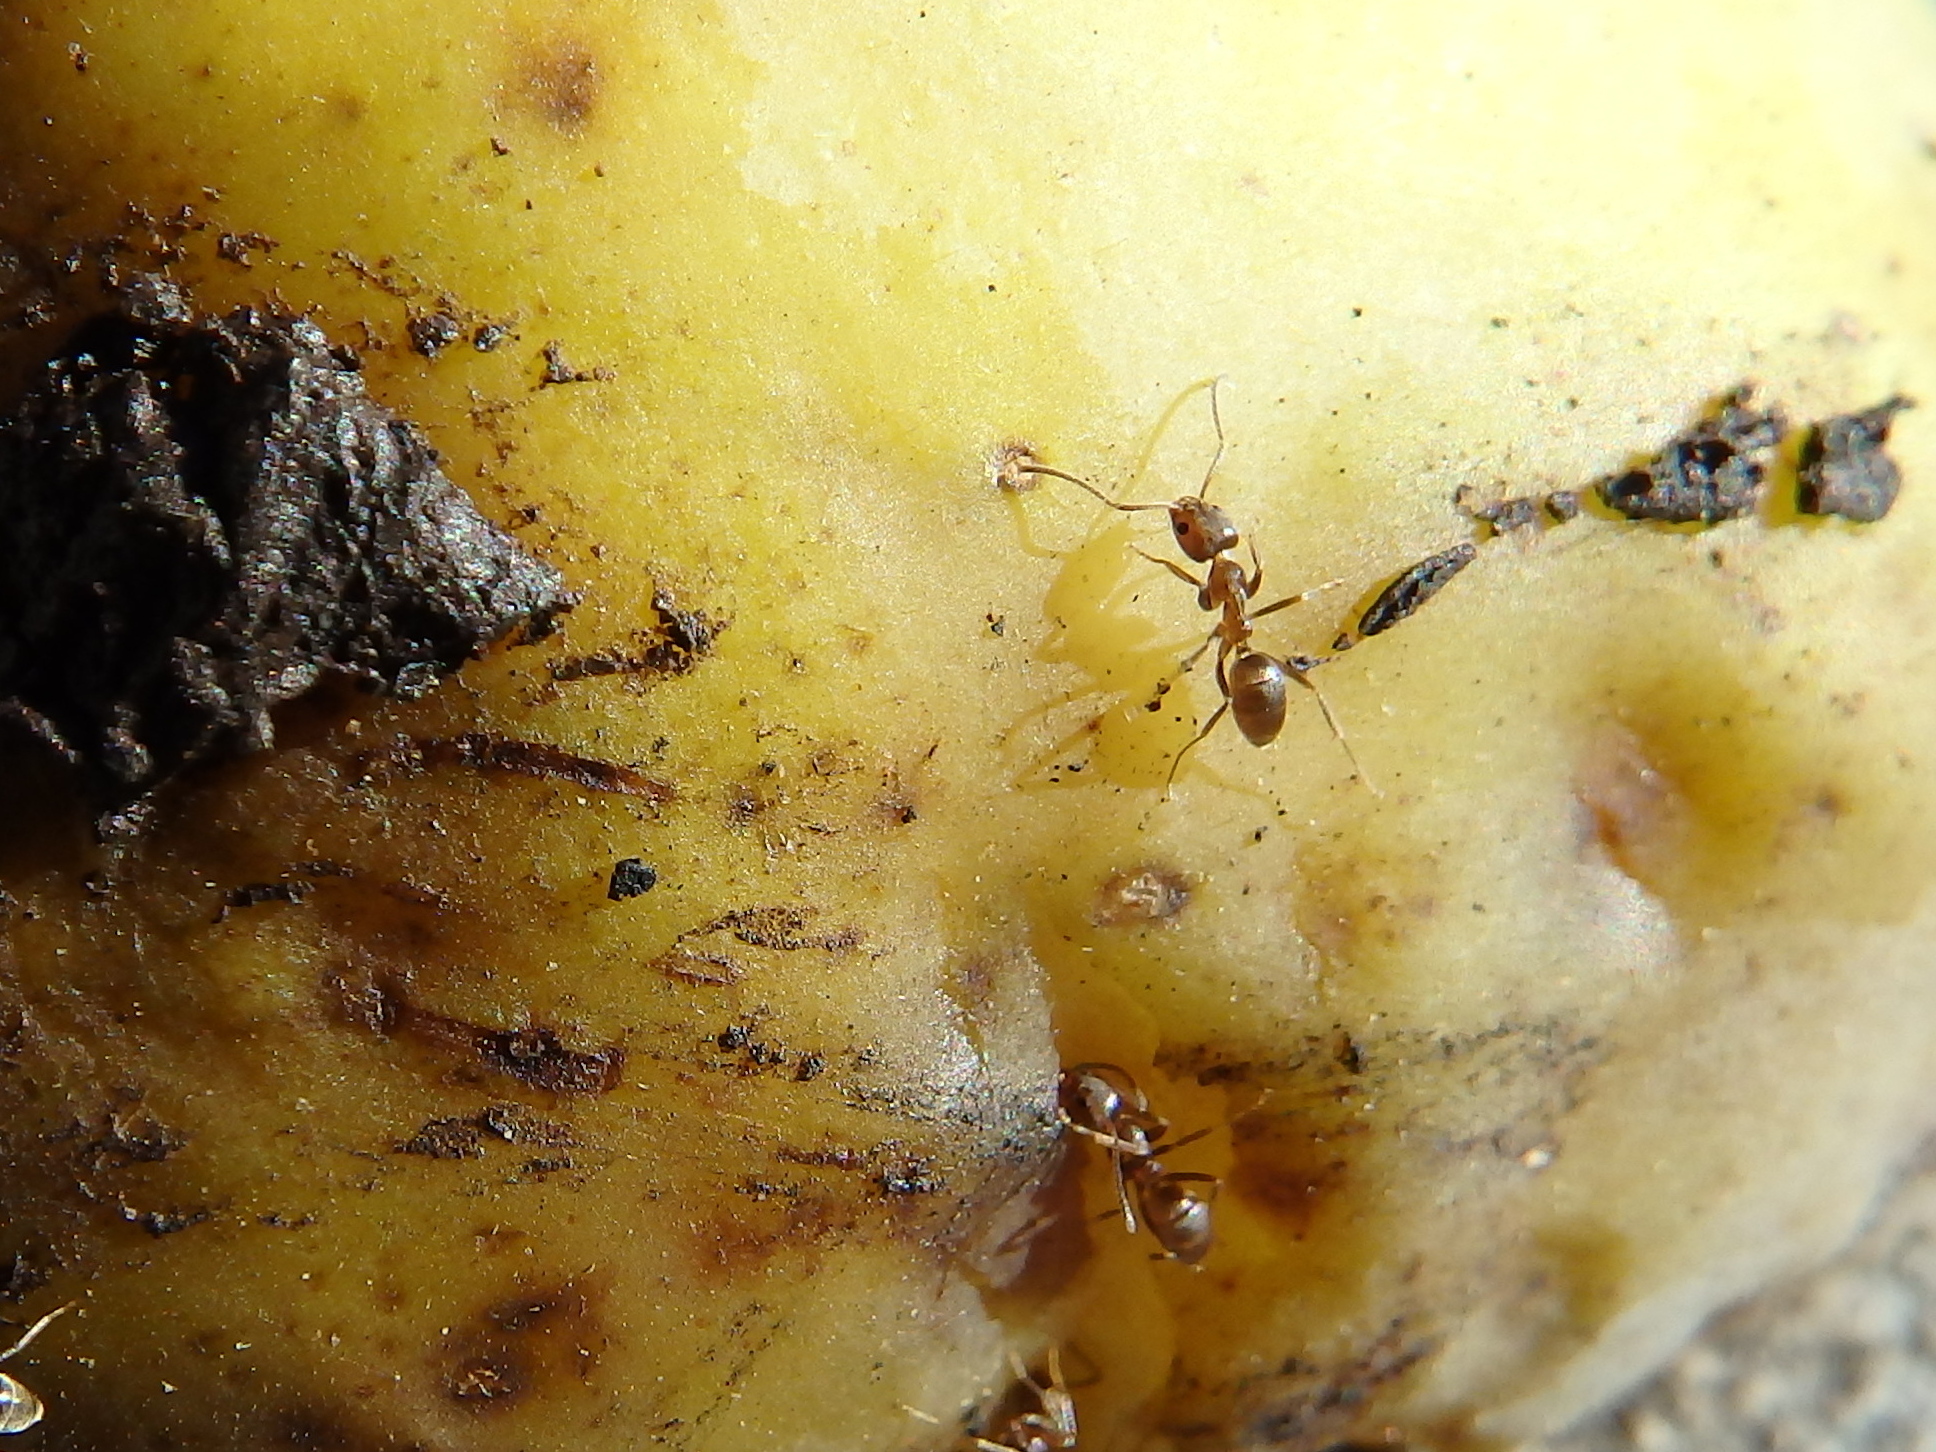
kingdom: Animalia
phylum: Arthropoda
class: Insecta
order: Hymenoptera
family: Formicidae
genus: Linepithema
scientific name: Linepithema humile
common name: Argentine ant
